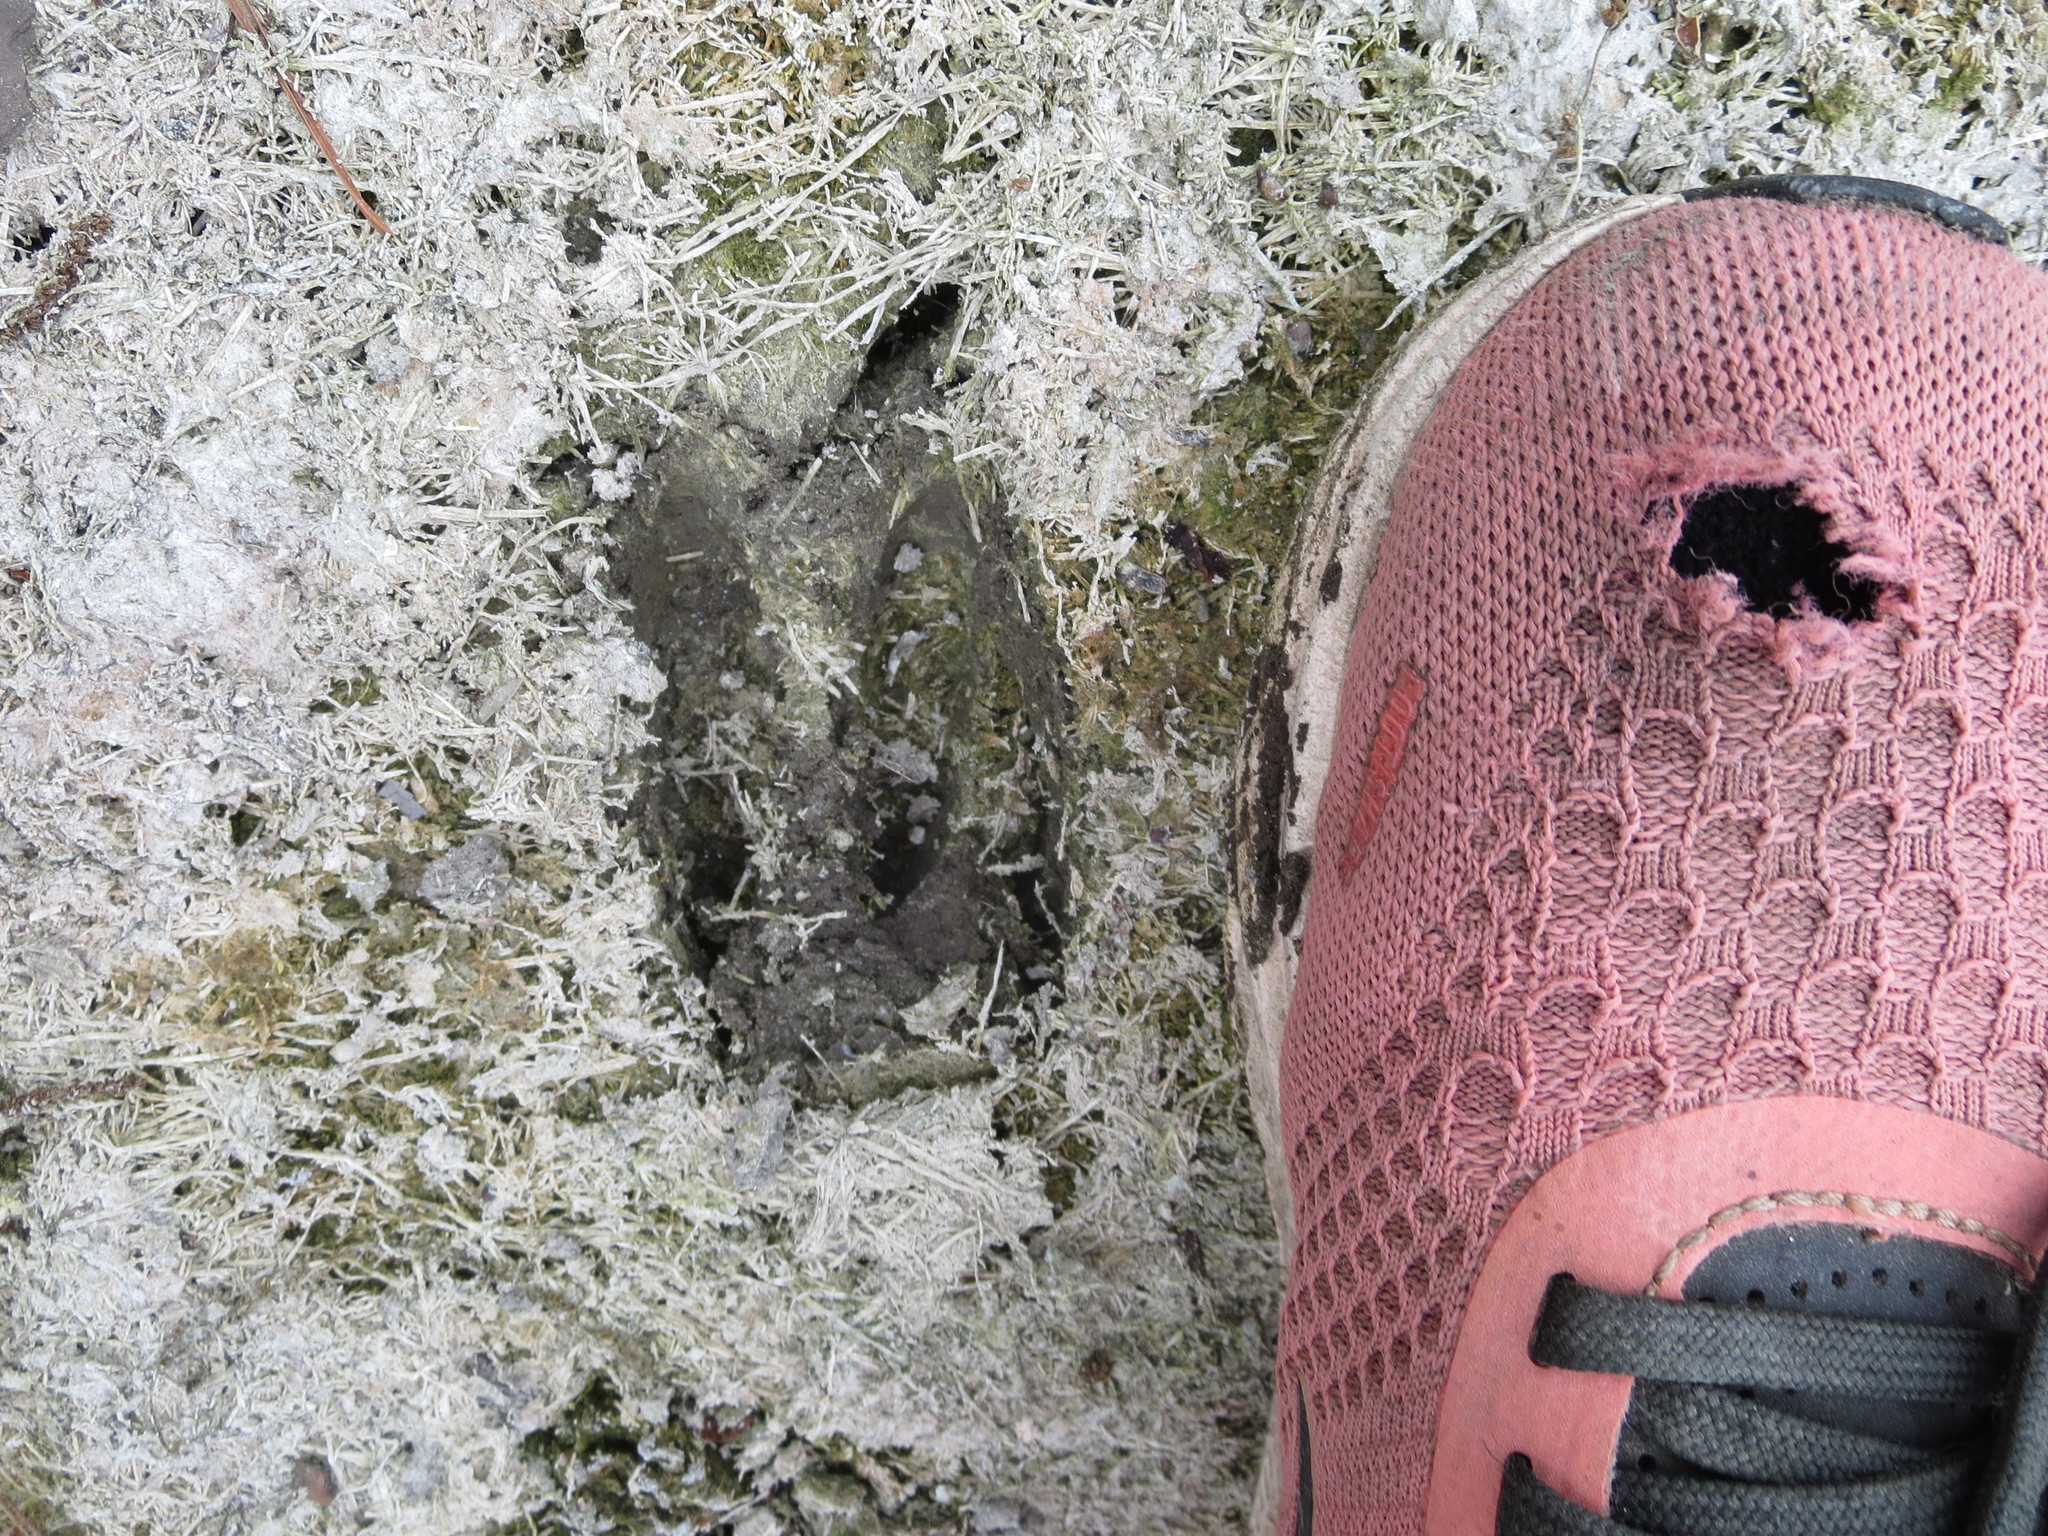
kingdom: Animalia
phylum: Chordata
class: Mammalia
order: Artiodactyla
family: Cervidae
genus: Odocoileus
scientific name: Odocoileus virginianus
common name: White-tailed deer
